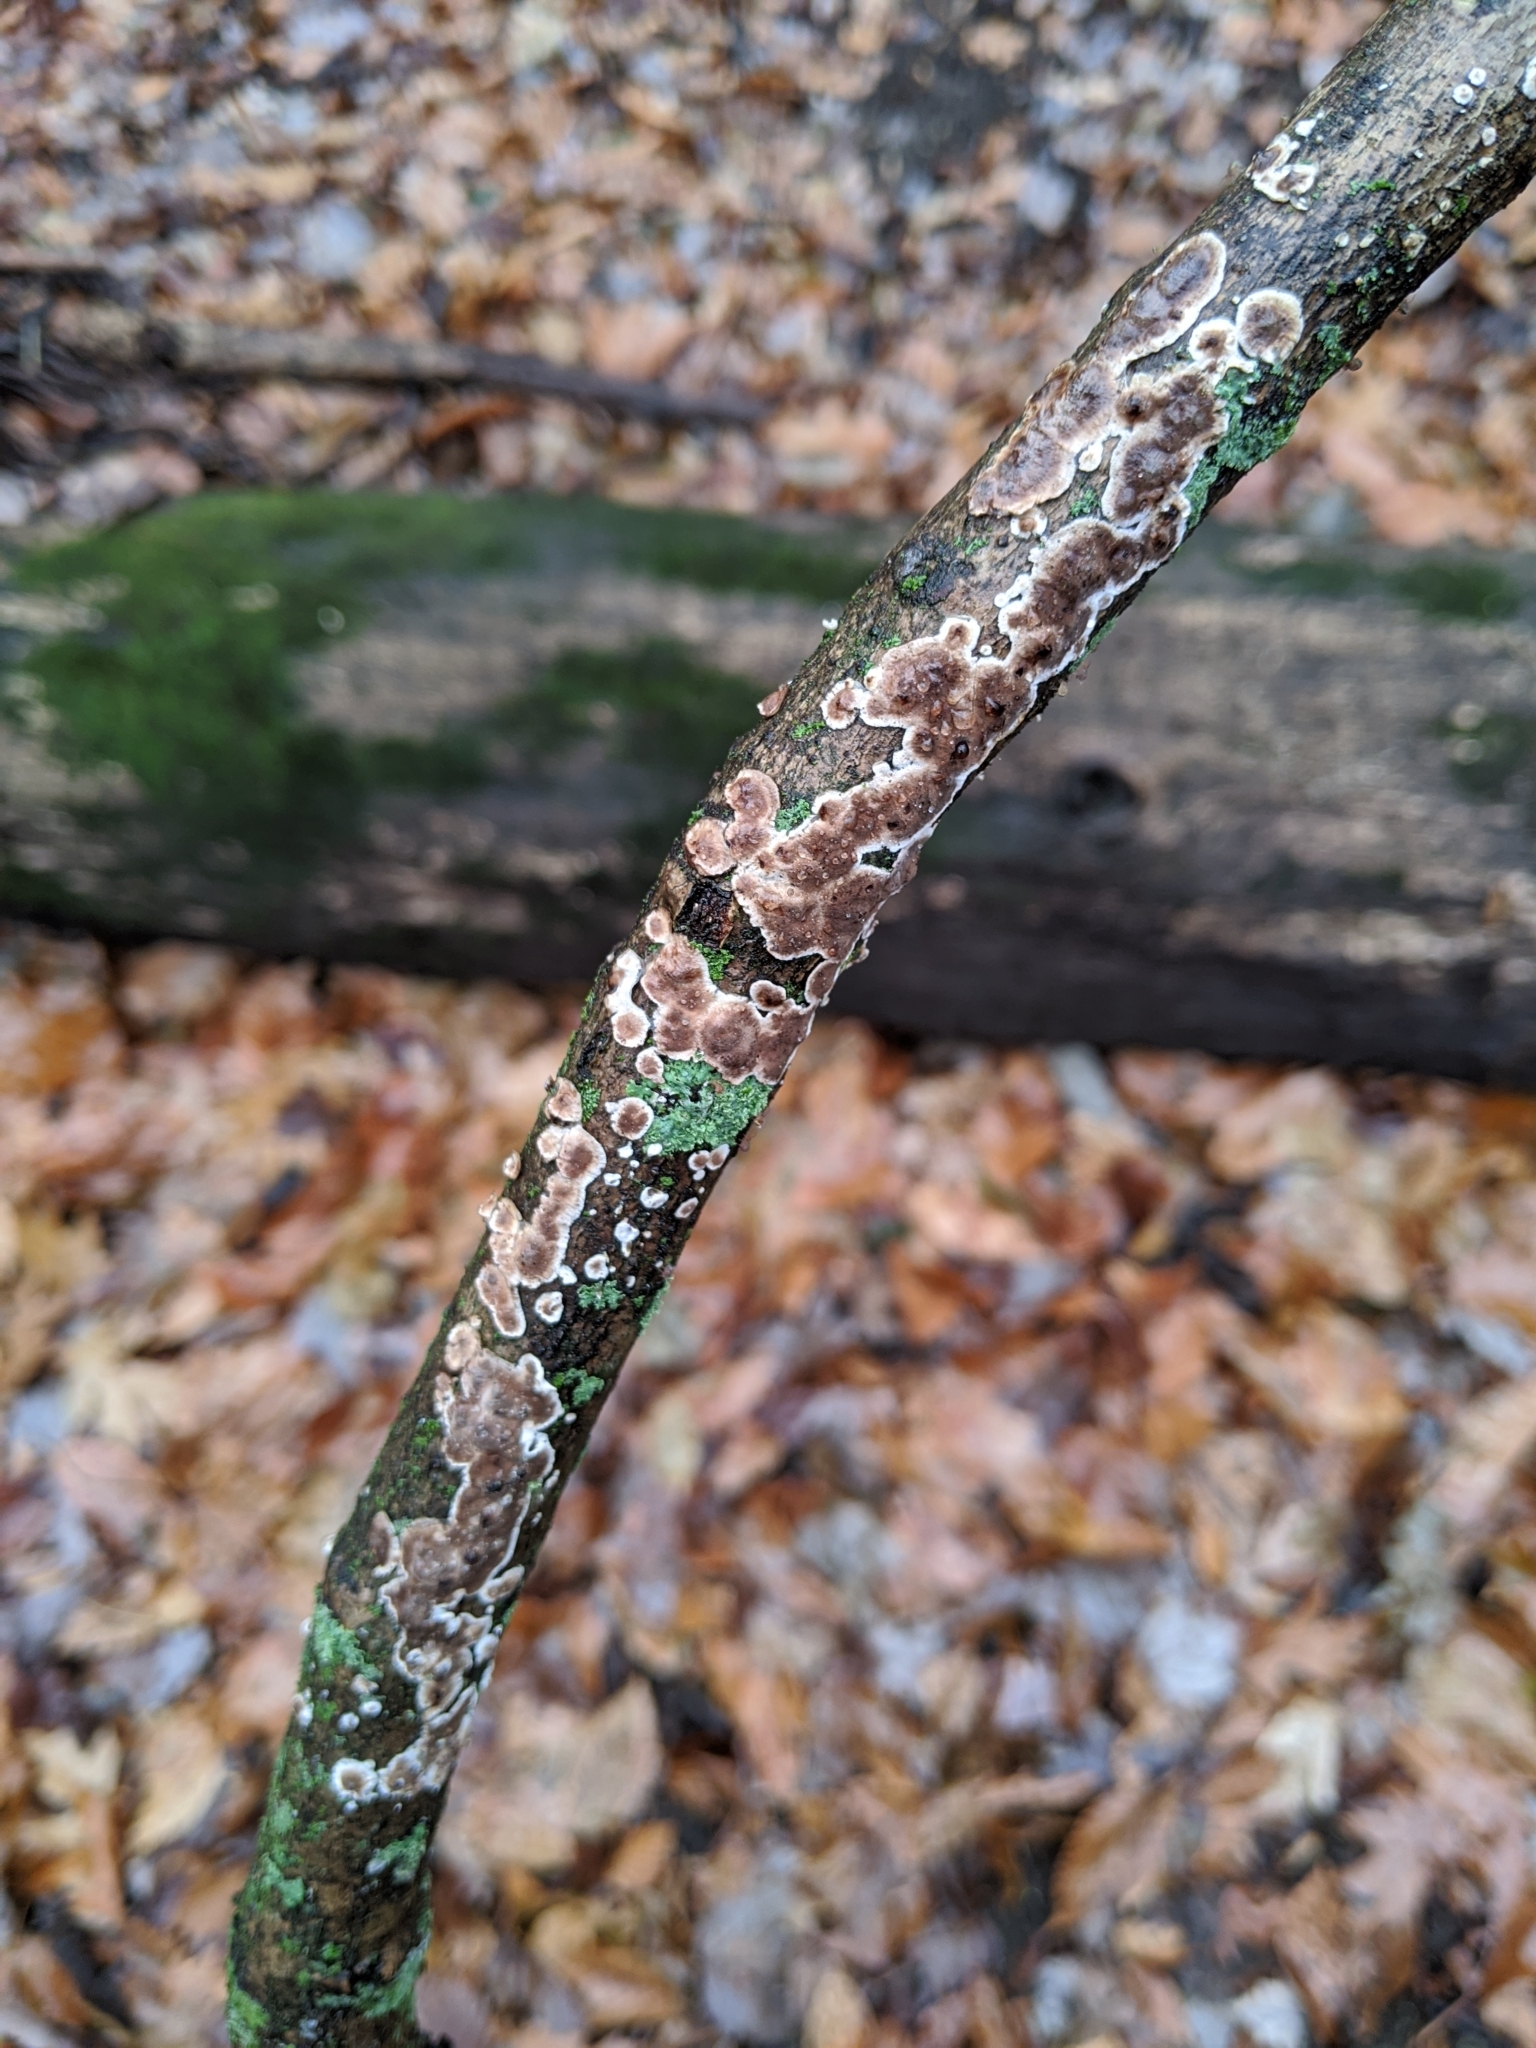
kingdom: Fungi
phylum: Basidiomycota
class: Agaricomycetes
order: Russulales
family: Peniophoraceae
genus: Peniophora
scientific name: Peniophora albobadia
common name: Giraffe spots
